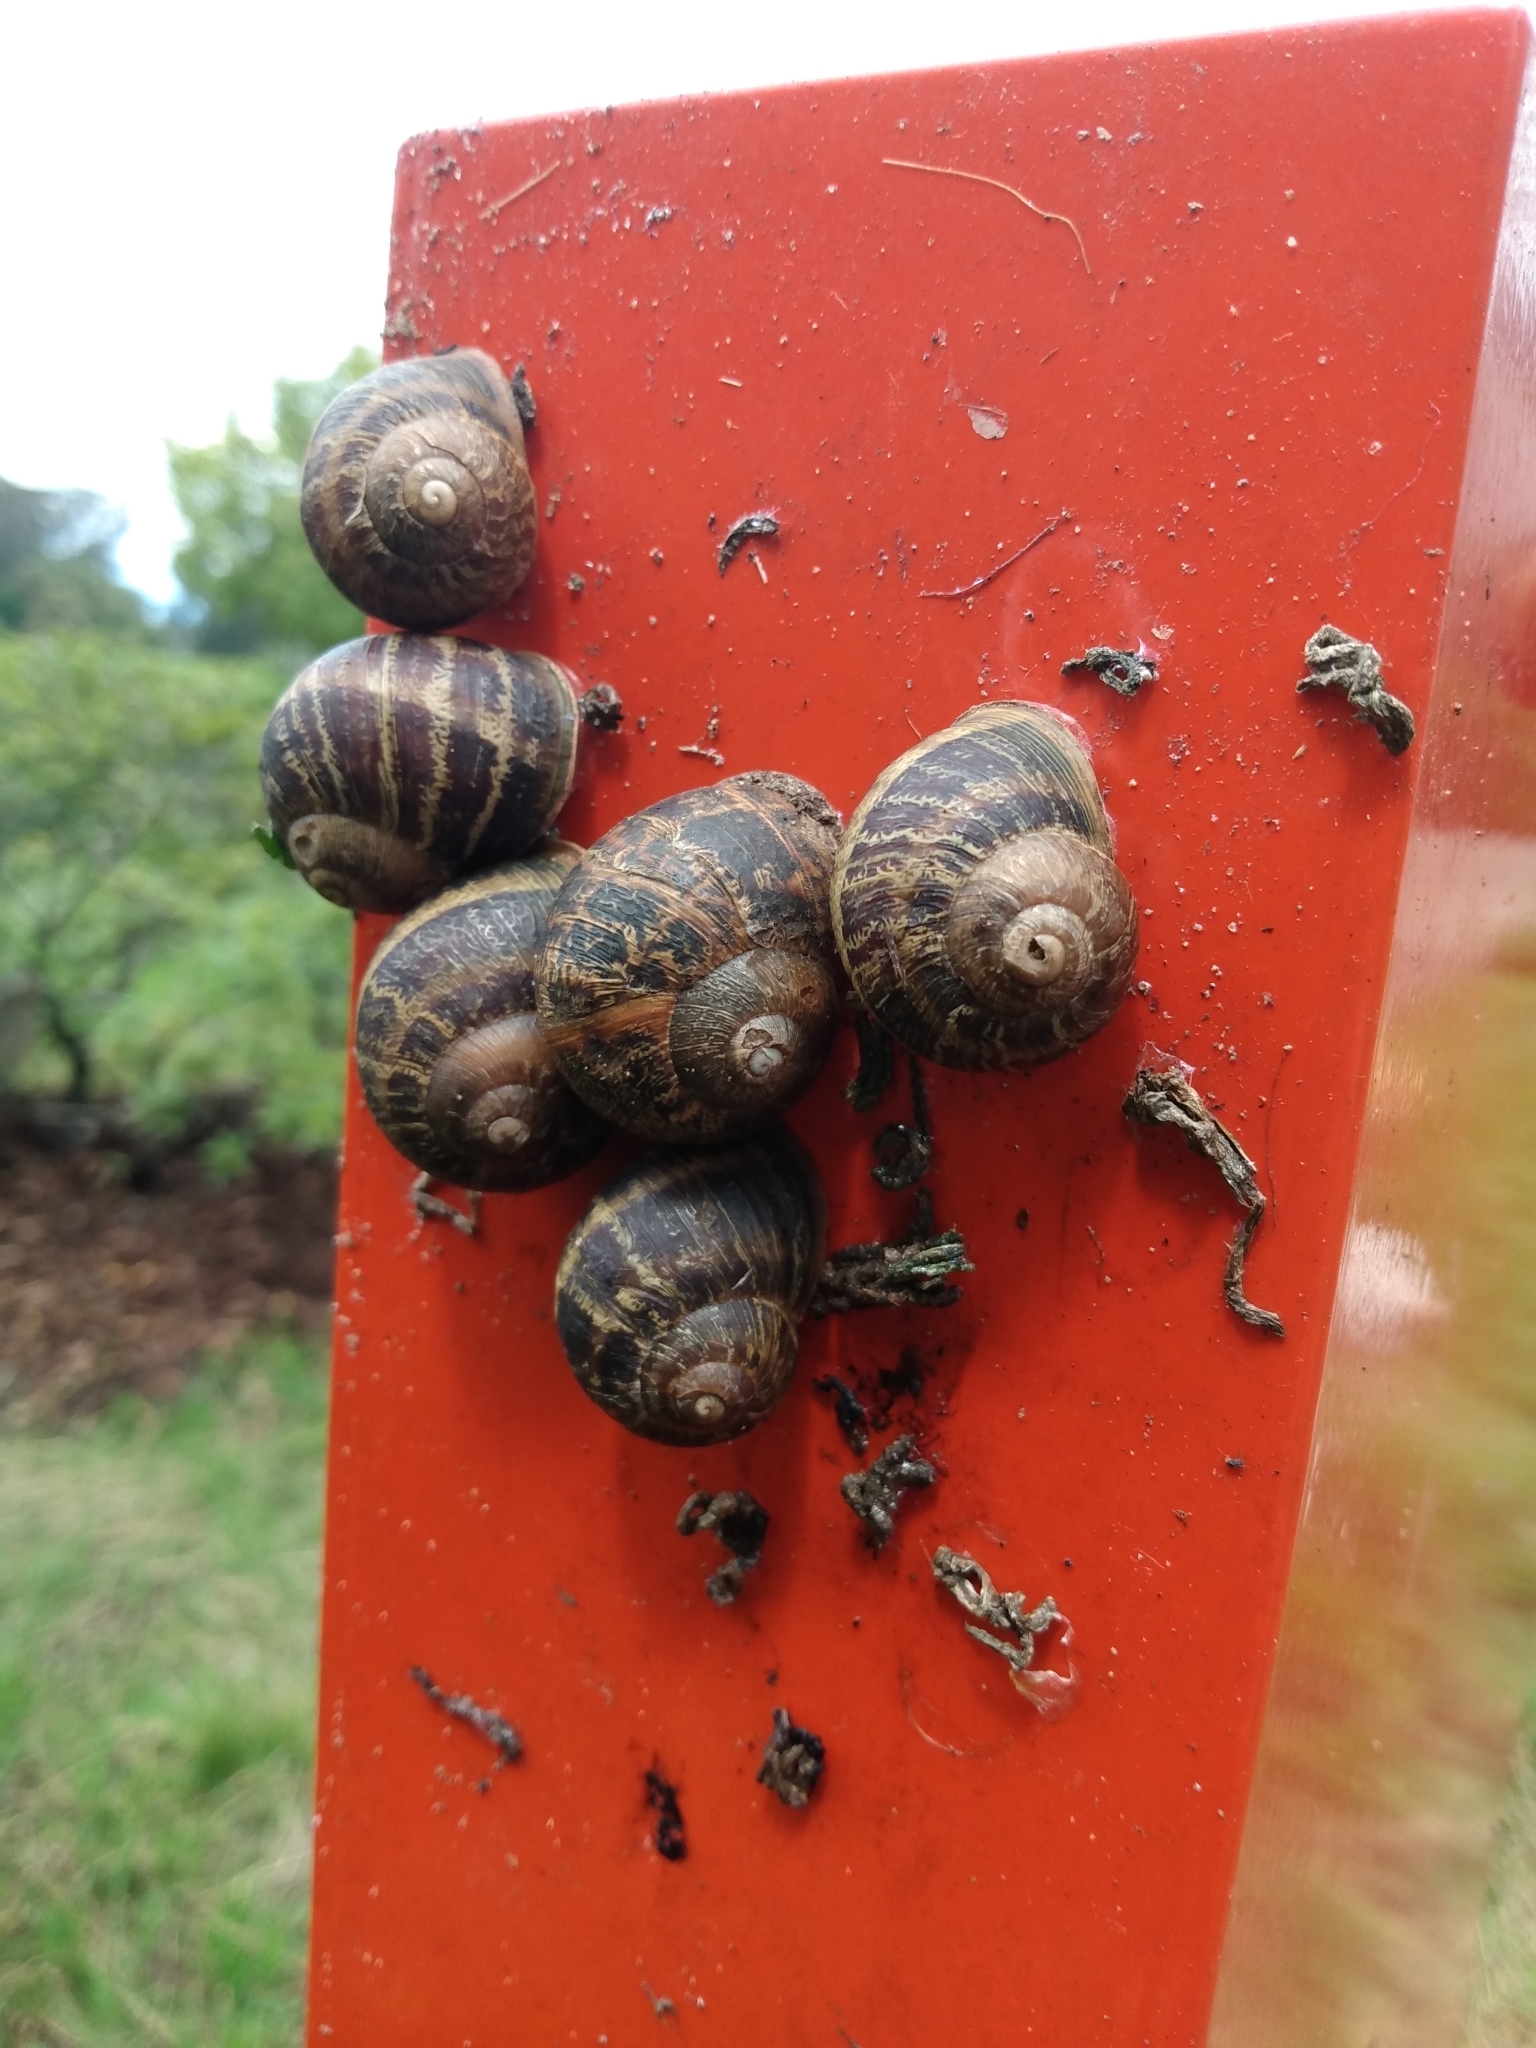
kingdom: Animalia
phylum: Mollusca
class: Gastropoda
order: Stylommatophora
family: Helicidae
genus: Cornu
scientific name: Cornu aspersum
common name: Brown garden snail
